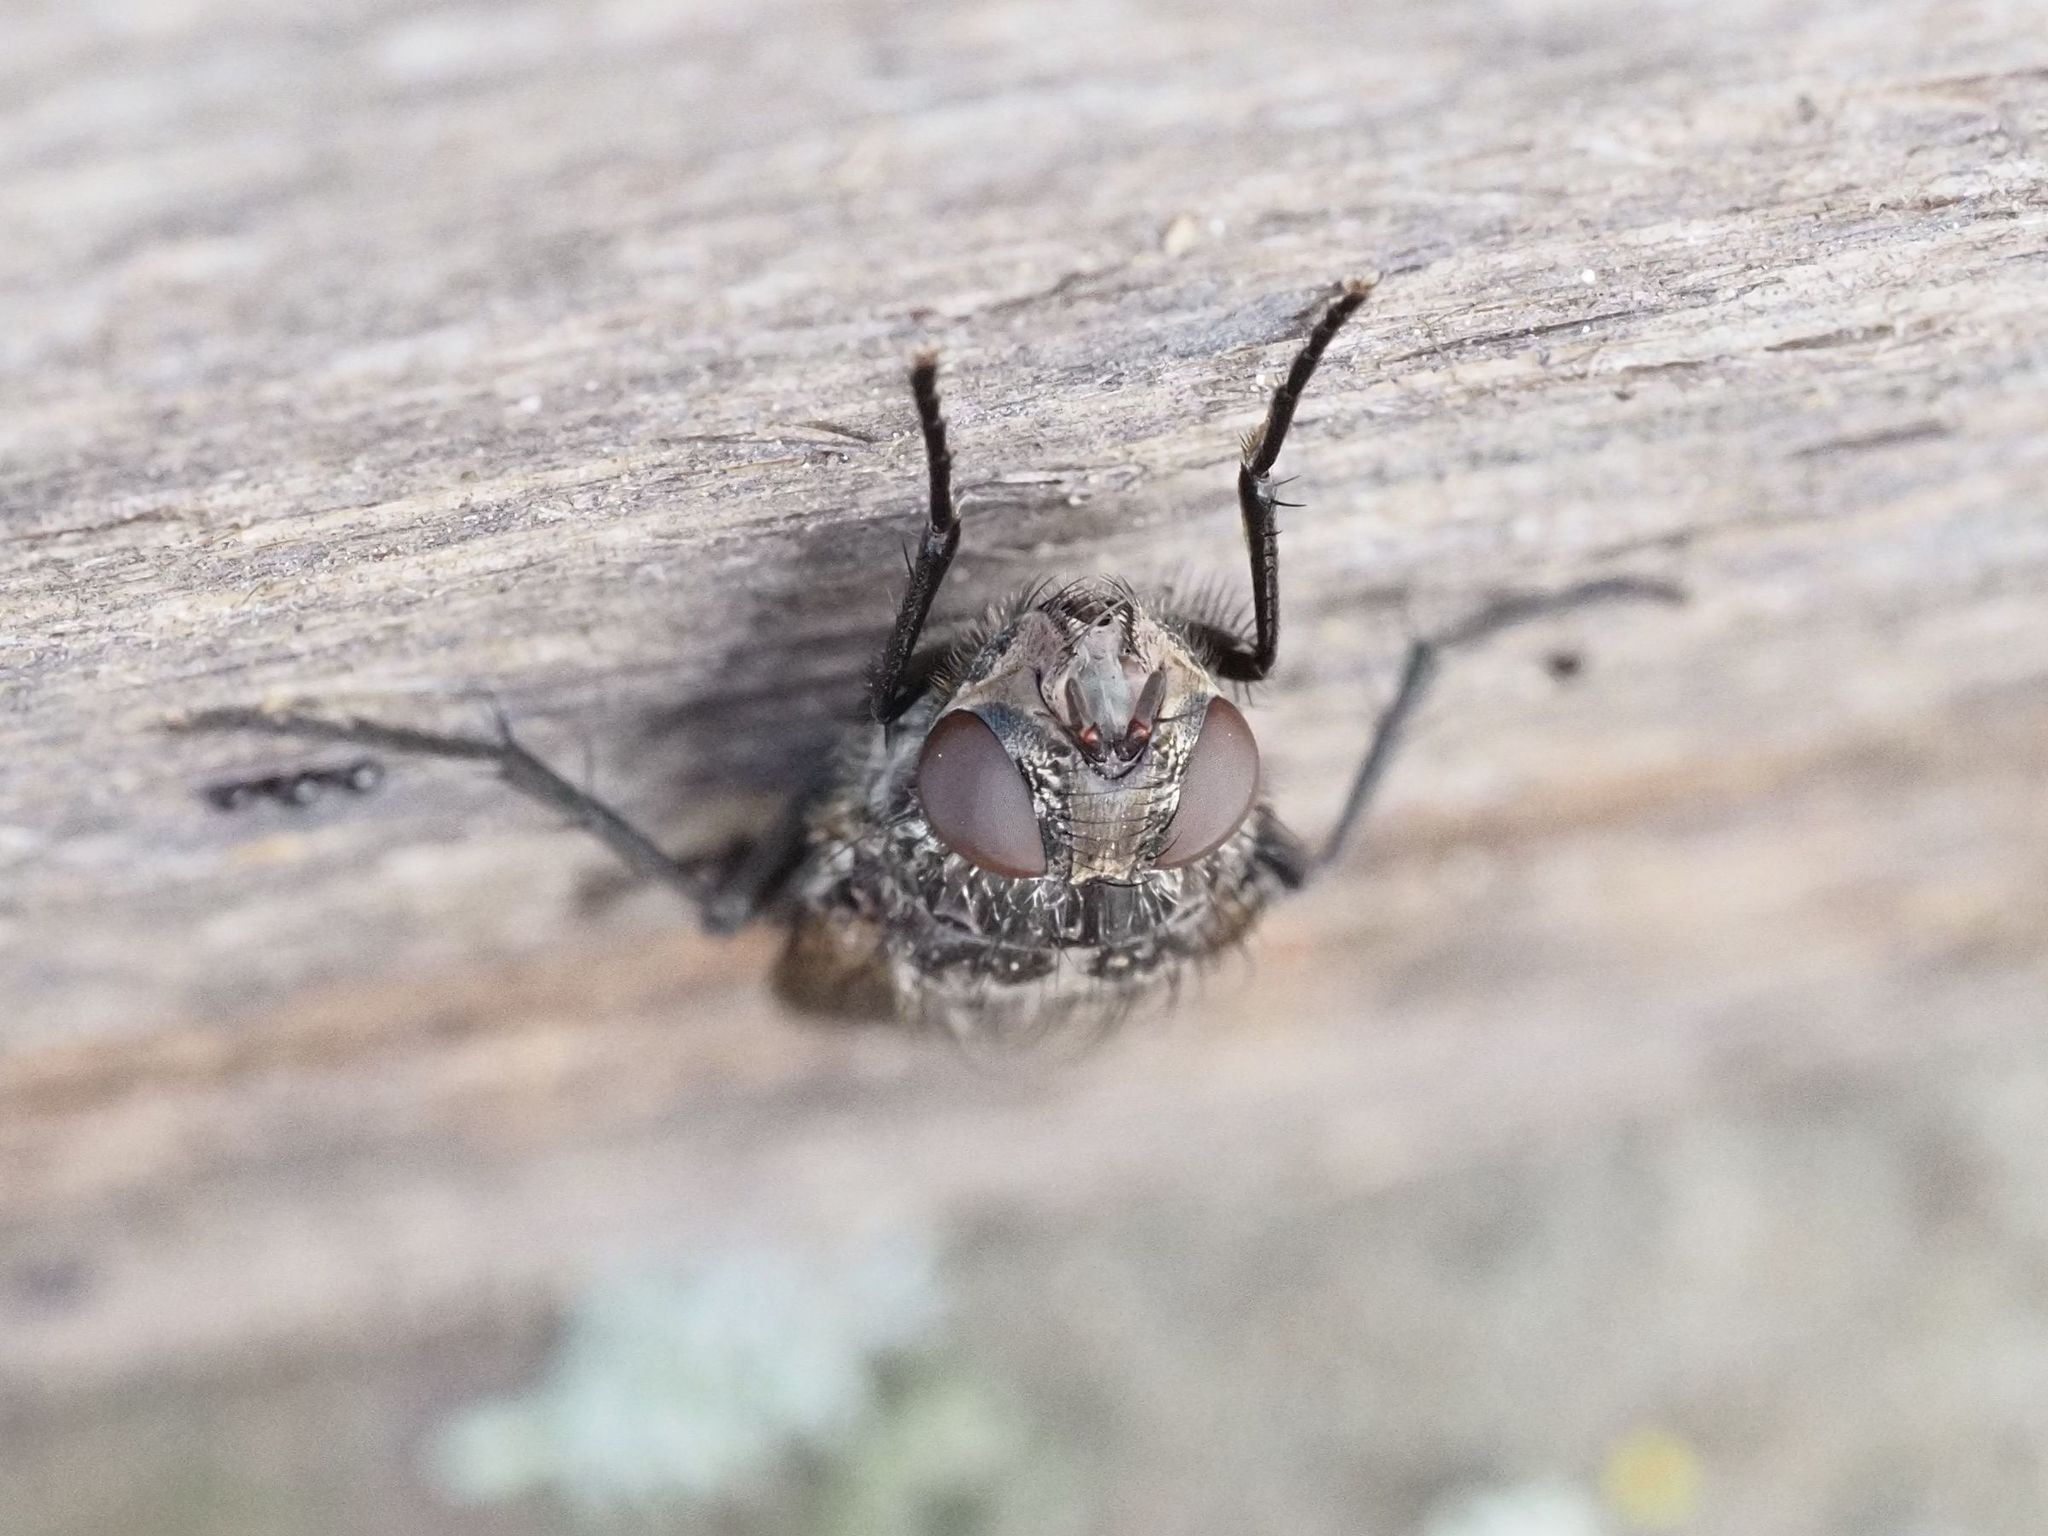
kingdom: Animalia
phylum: Arthropoda
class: Insecta
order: Diptera
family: Polleniidae
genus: Pollenia
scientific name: Pollenia vagabunda
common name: Vagabund cluster fly
